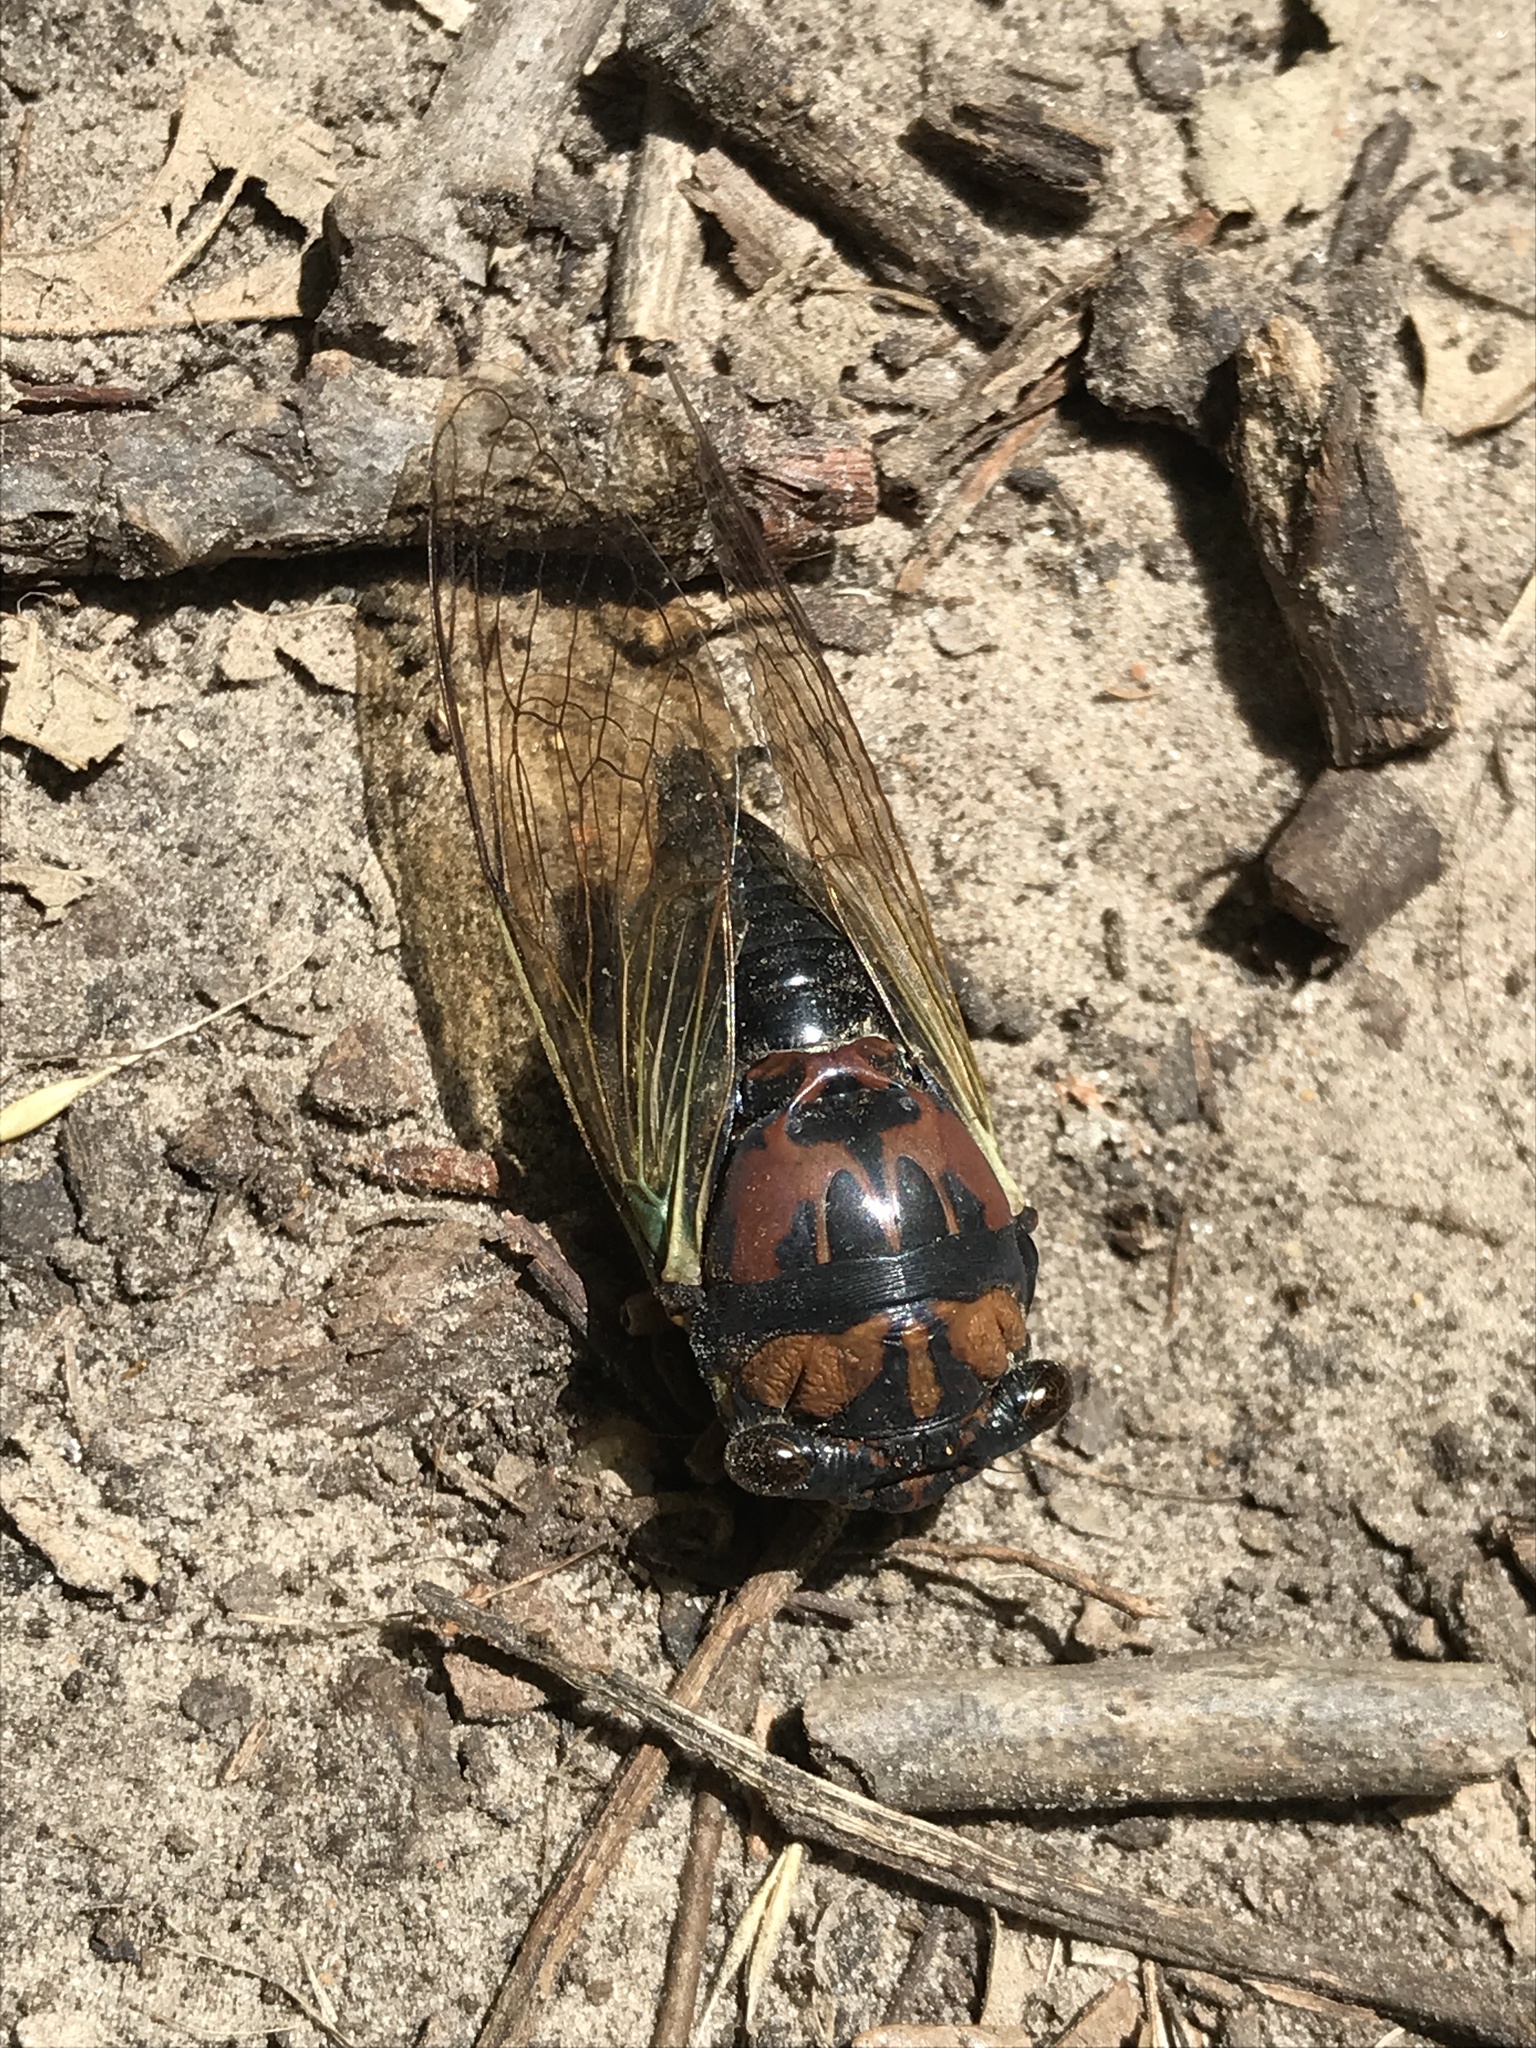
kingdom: Animalia
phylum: Arthropoda
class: Insecta
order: Hemiptera
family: Cicadidae
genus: Neotibicen
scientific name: Neotibicen lyricen
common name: Lyric cicada
